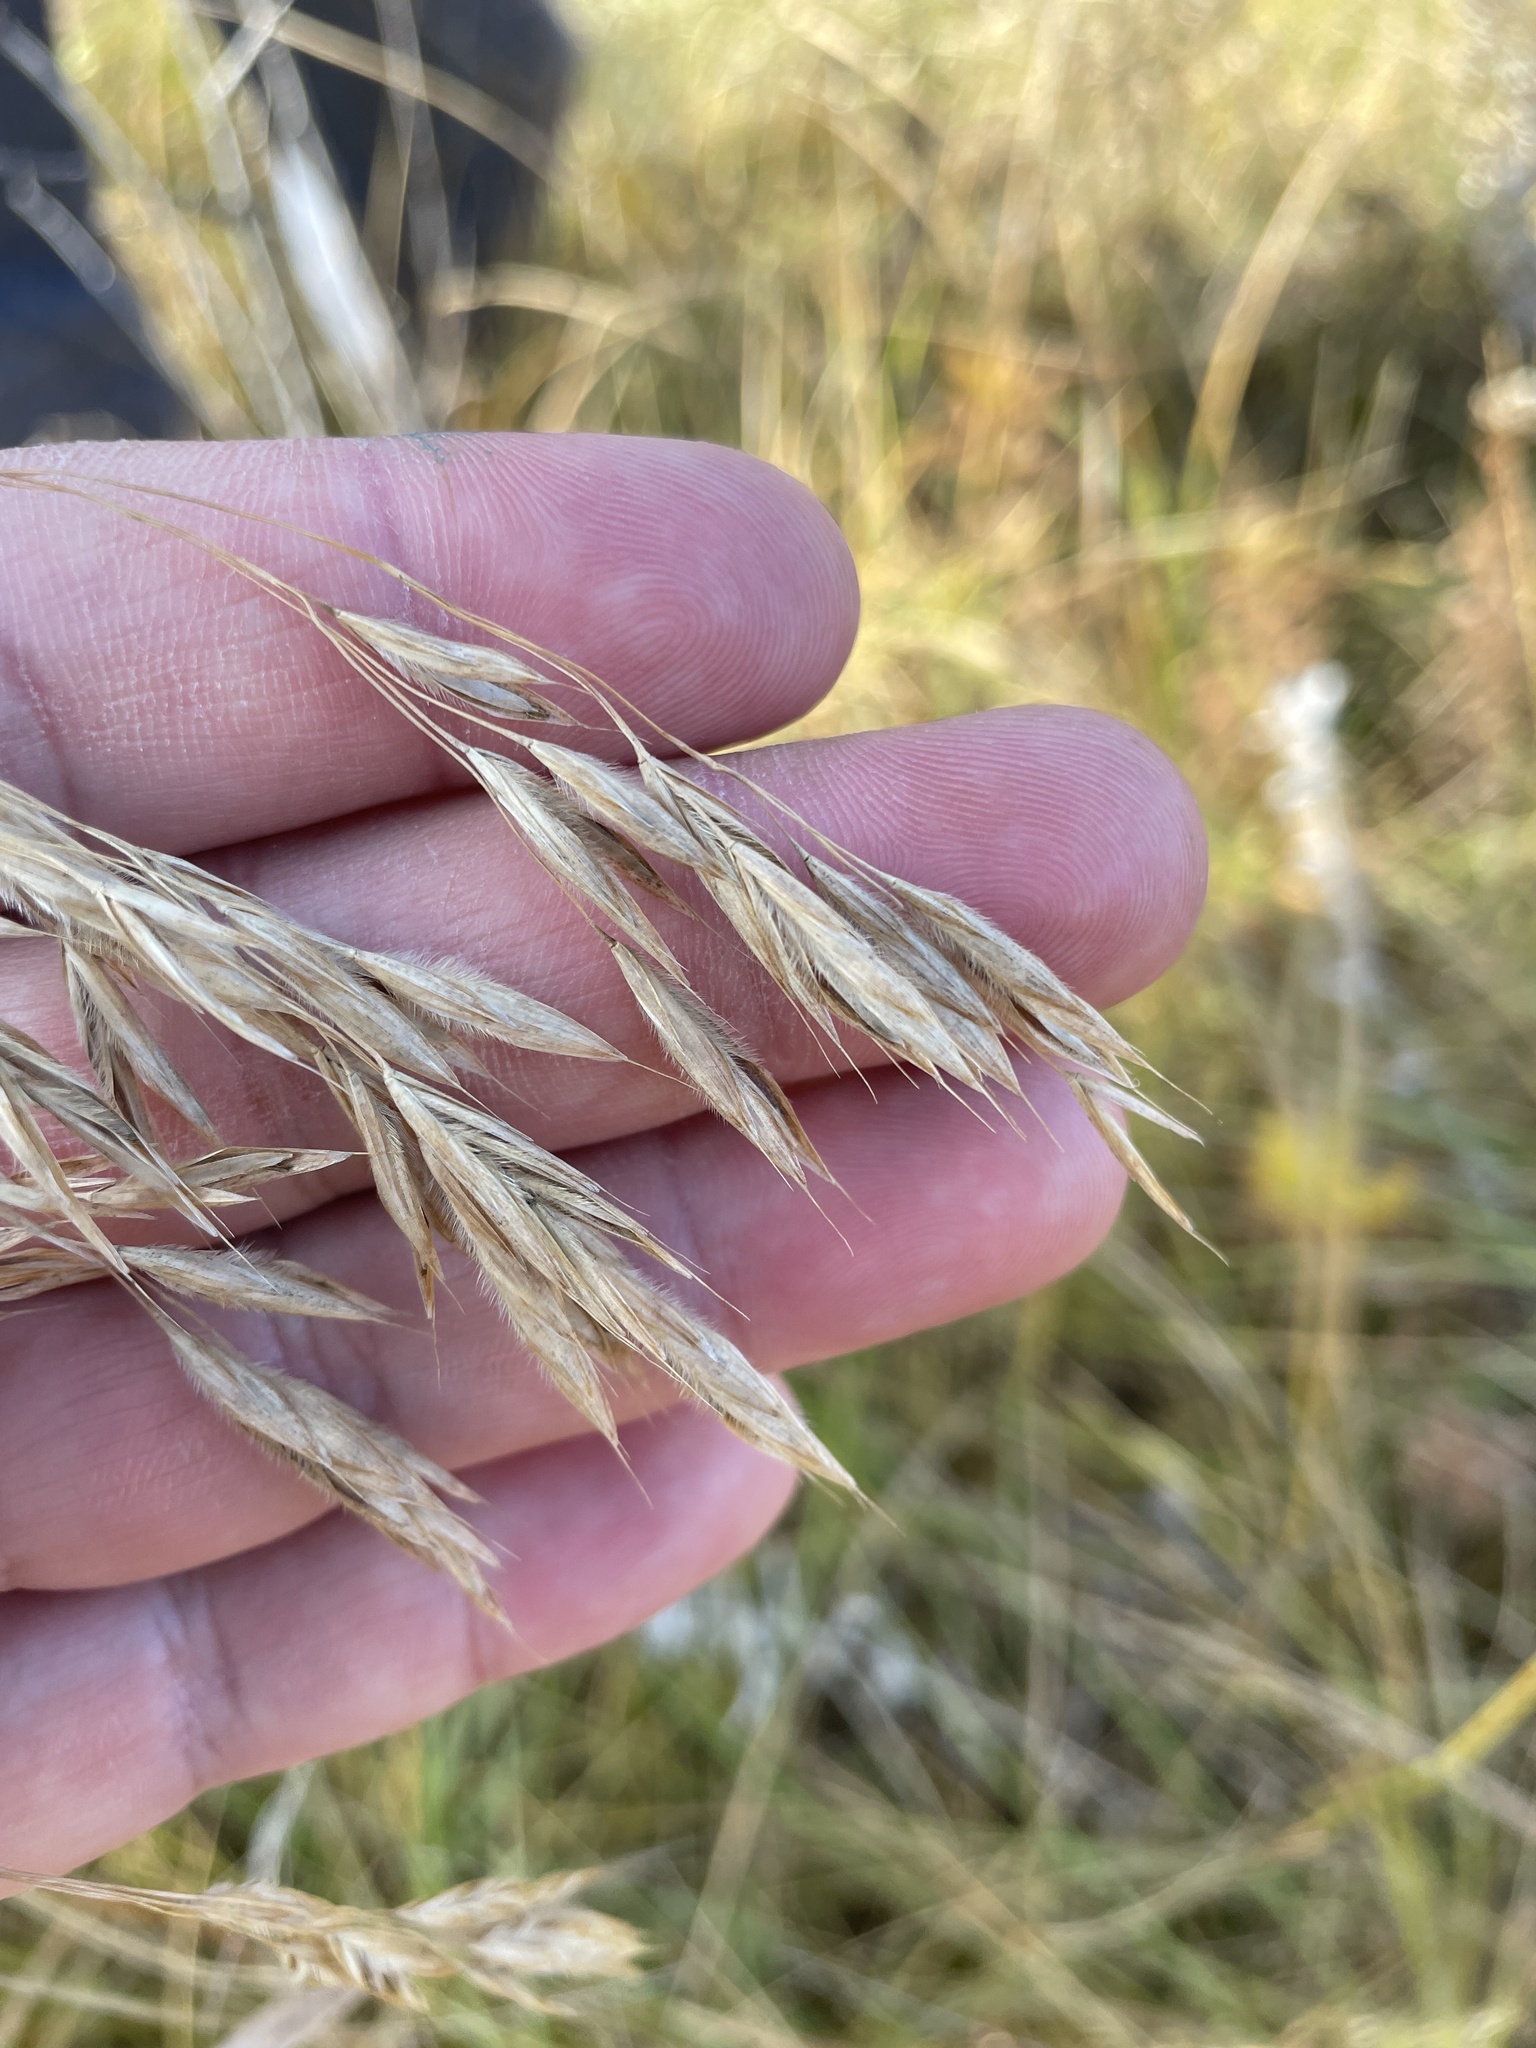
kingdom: Plantae
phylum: Tracheophyta
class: Liliopsida
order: Poales
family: Poaceae
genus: Bromus
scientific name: Bromus ciliatus
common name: Fringe brome
